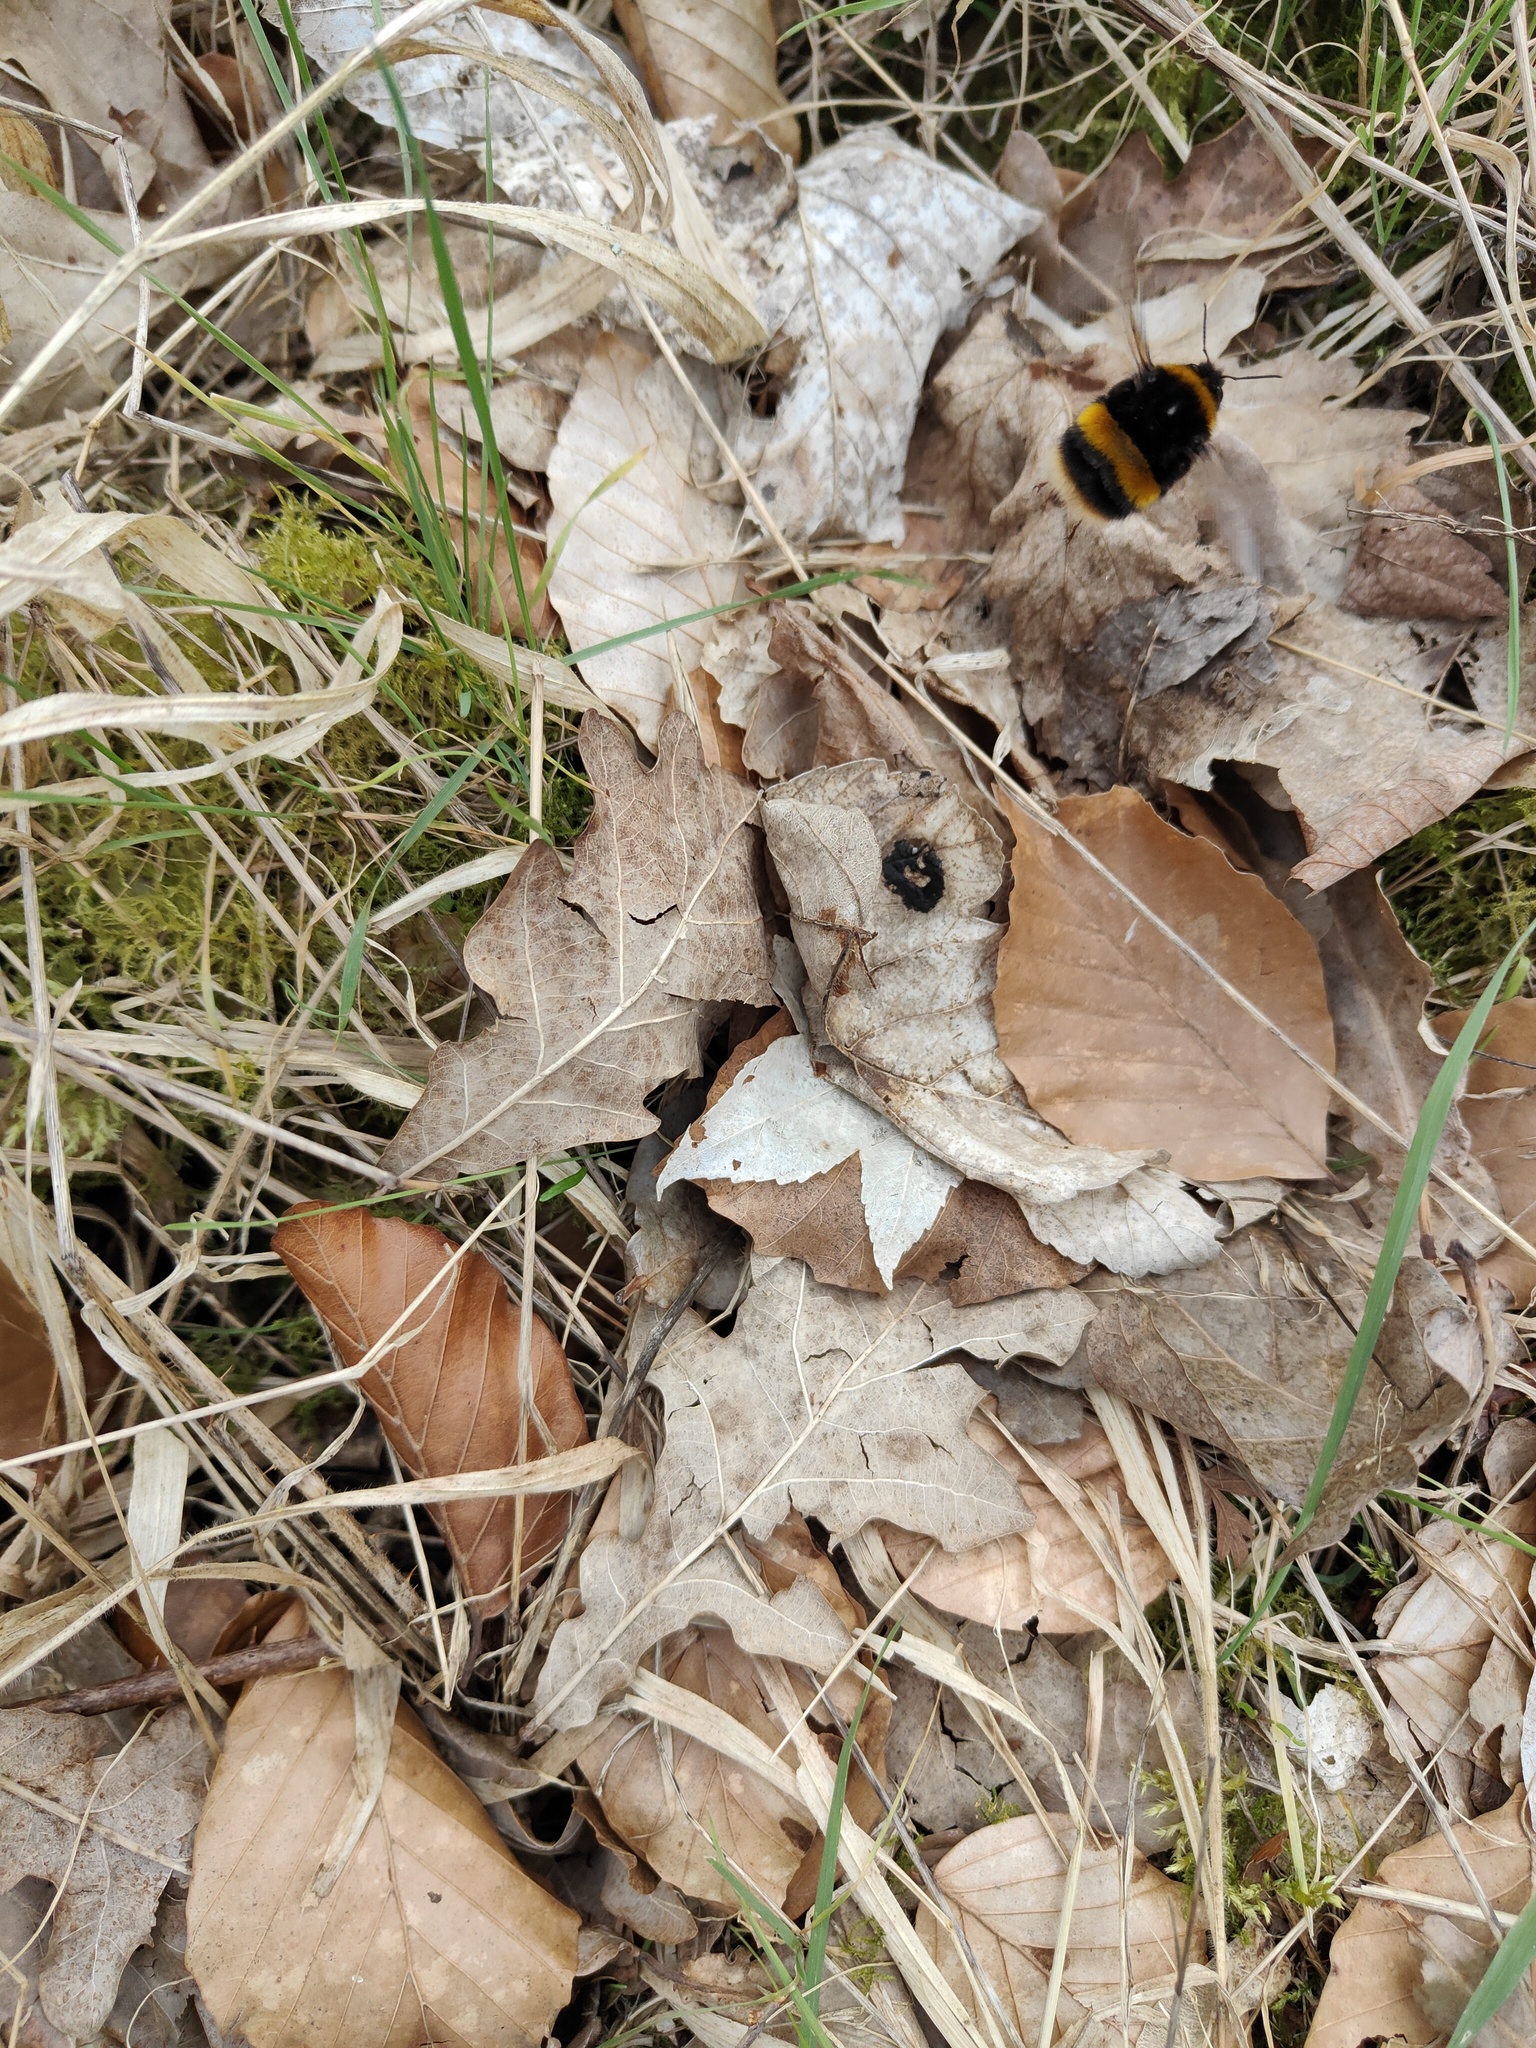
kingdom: Animalia
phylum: Arthropoda
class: Insecta
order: Hymenoptera
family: Apidae
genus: Bombus
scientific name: Bombus terrestris
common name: Buff-tailed bumblebee
